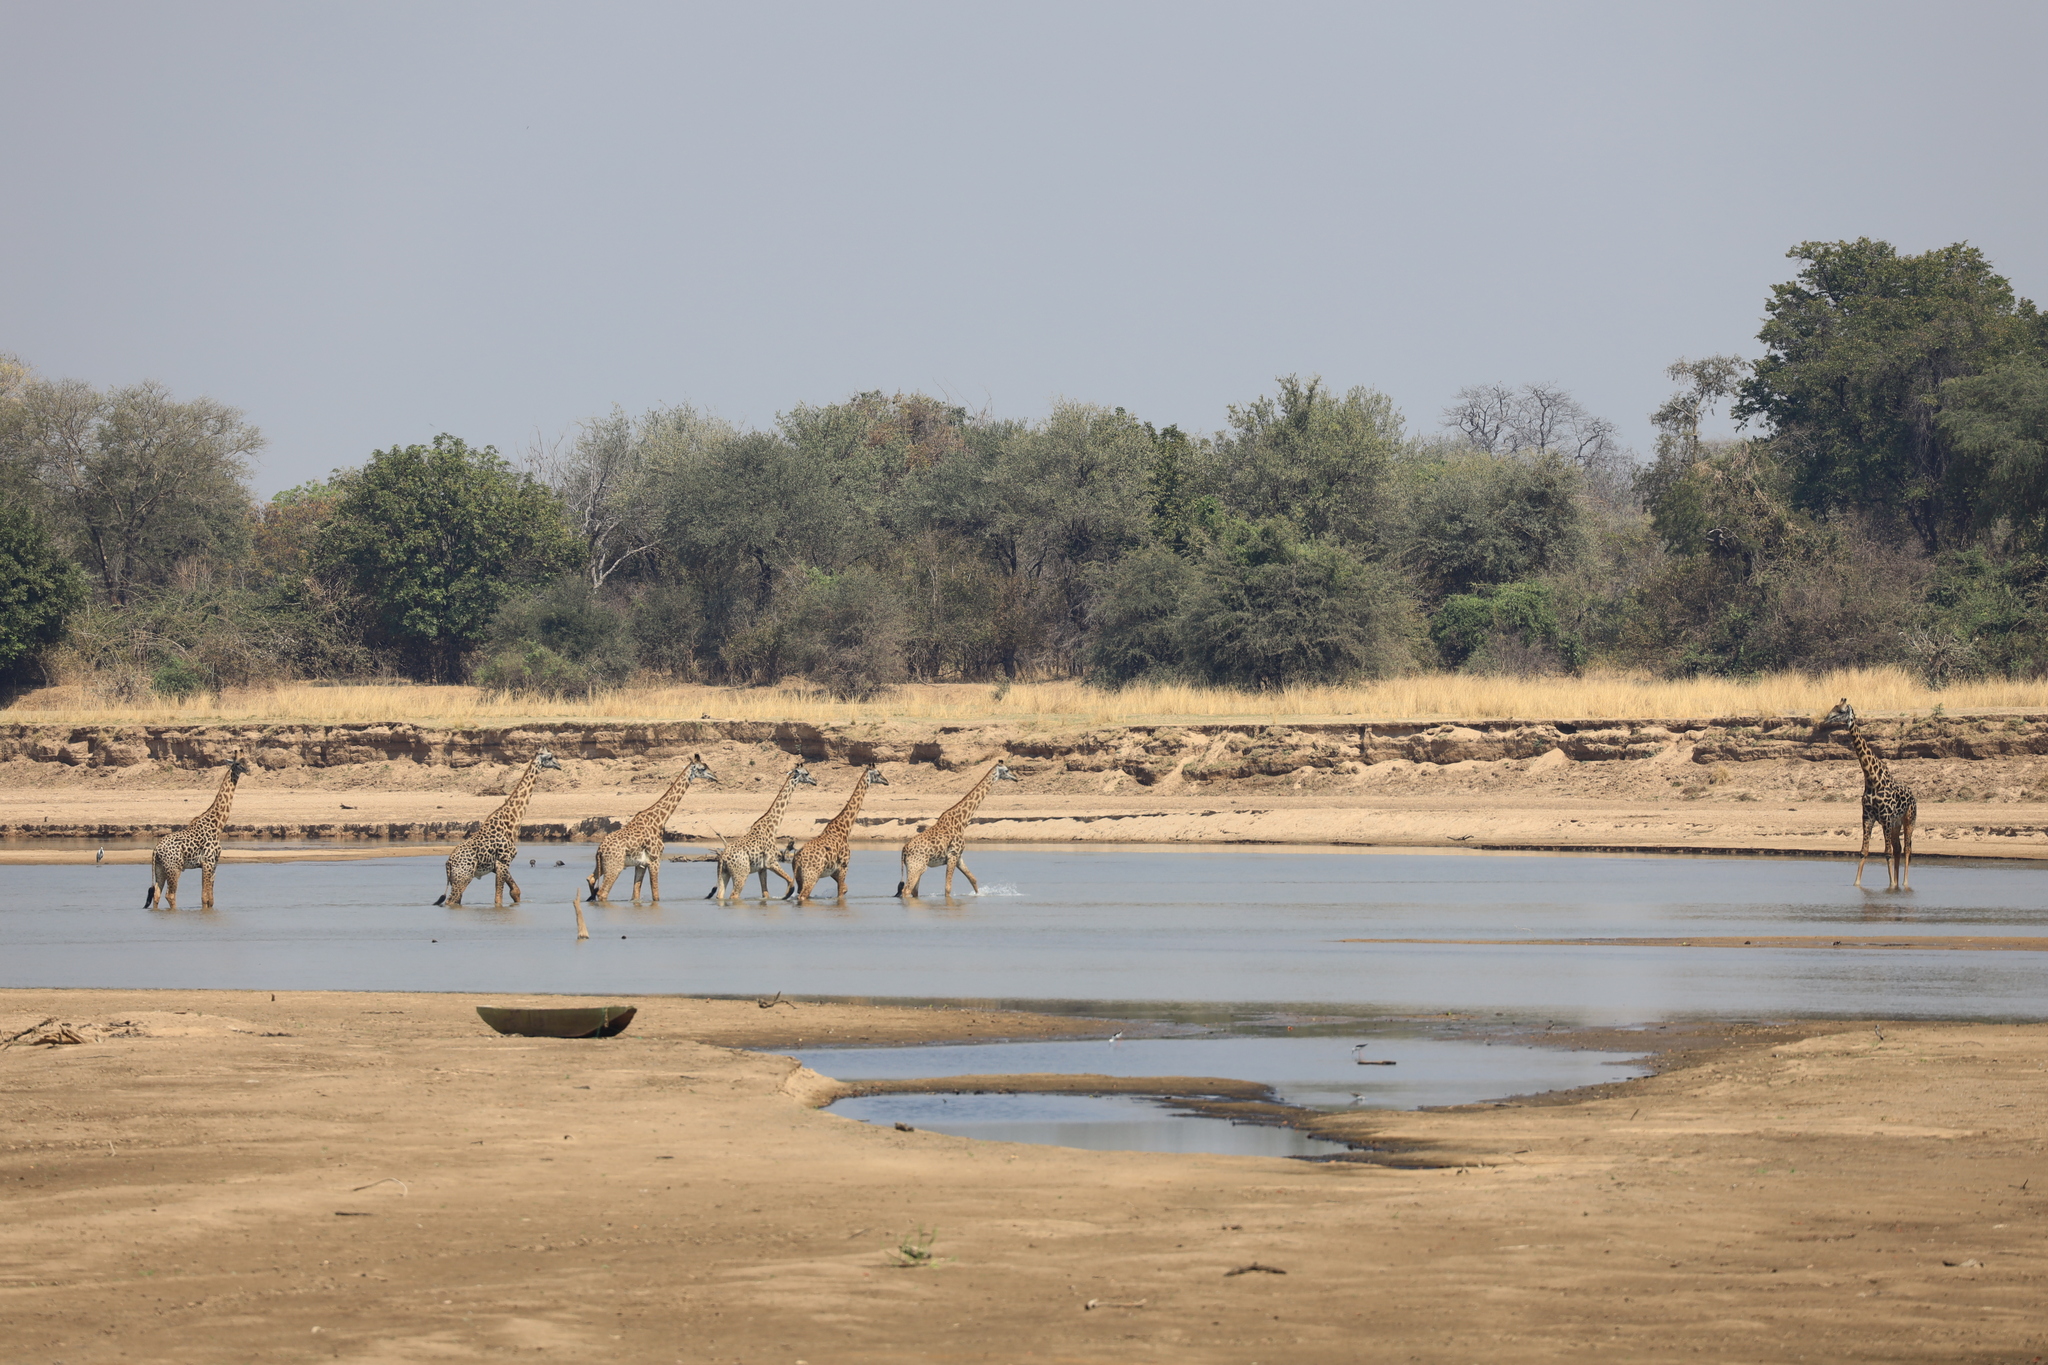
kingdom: Animalia
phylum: Chordata
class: Mammalia
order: Artiodactyla
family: Giraffidae
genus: Giraffa
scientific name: Giraffa tippelskirchi
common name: Masai giraffe
